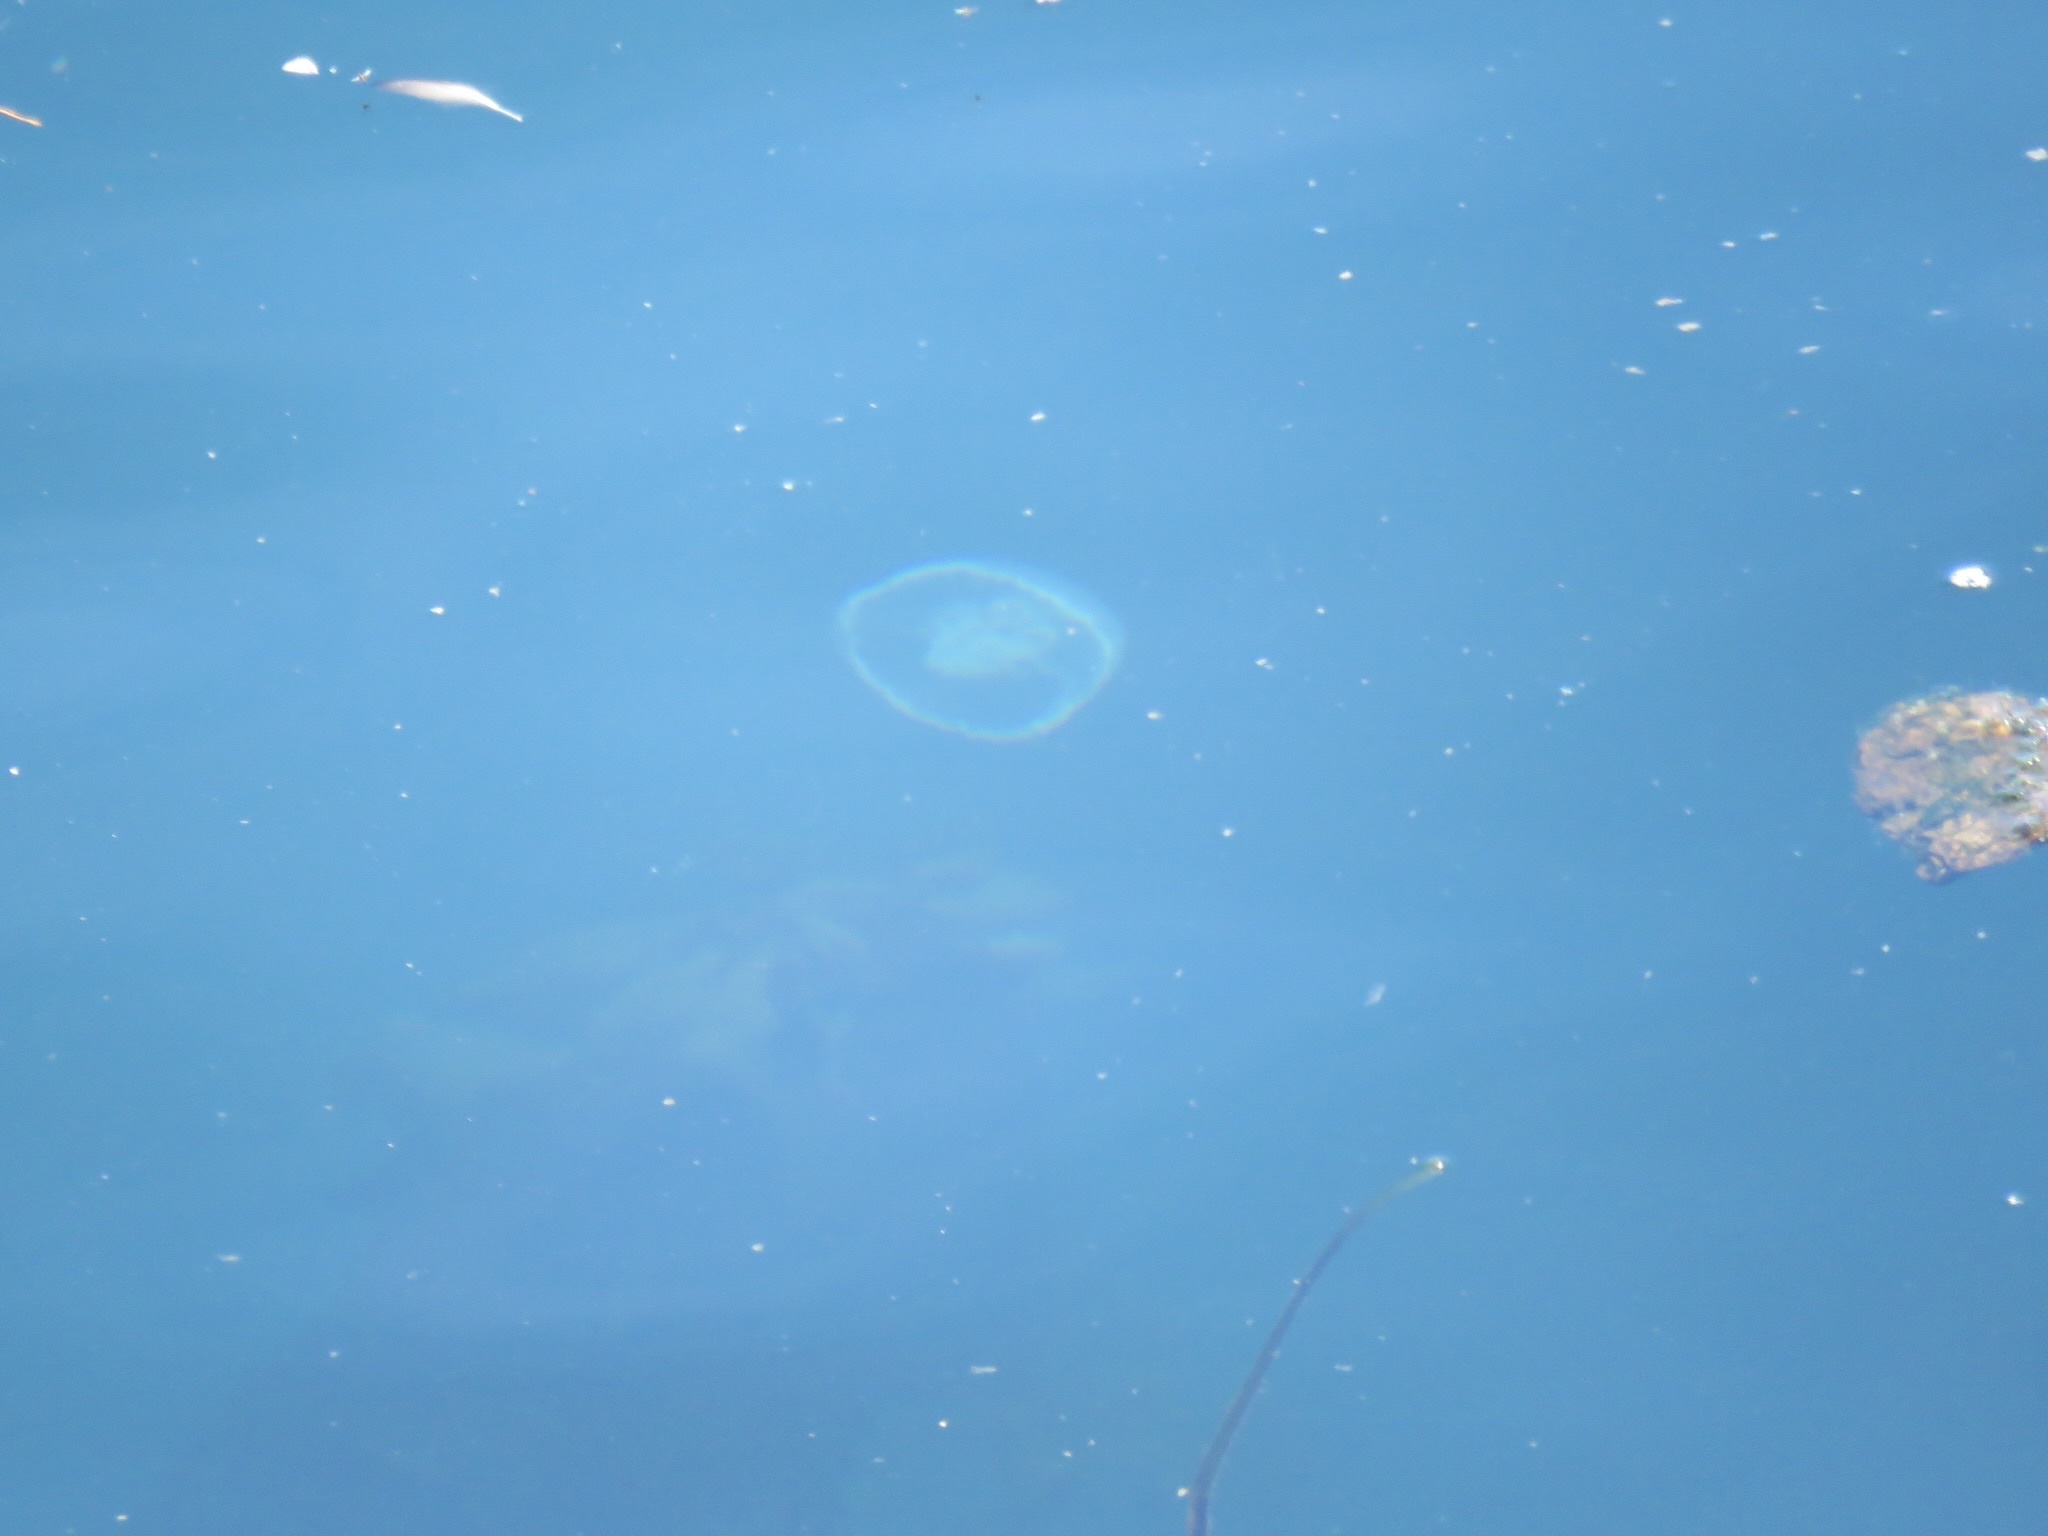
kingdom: Animalia
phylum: Cnidaria
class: Scyphozoa
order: Semaeostomeae
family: Ulmaridae
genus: Aurelia
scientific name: Aurelia labiata
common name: Pacific moon jelly
